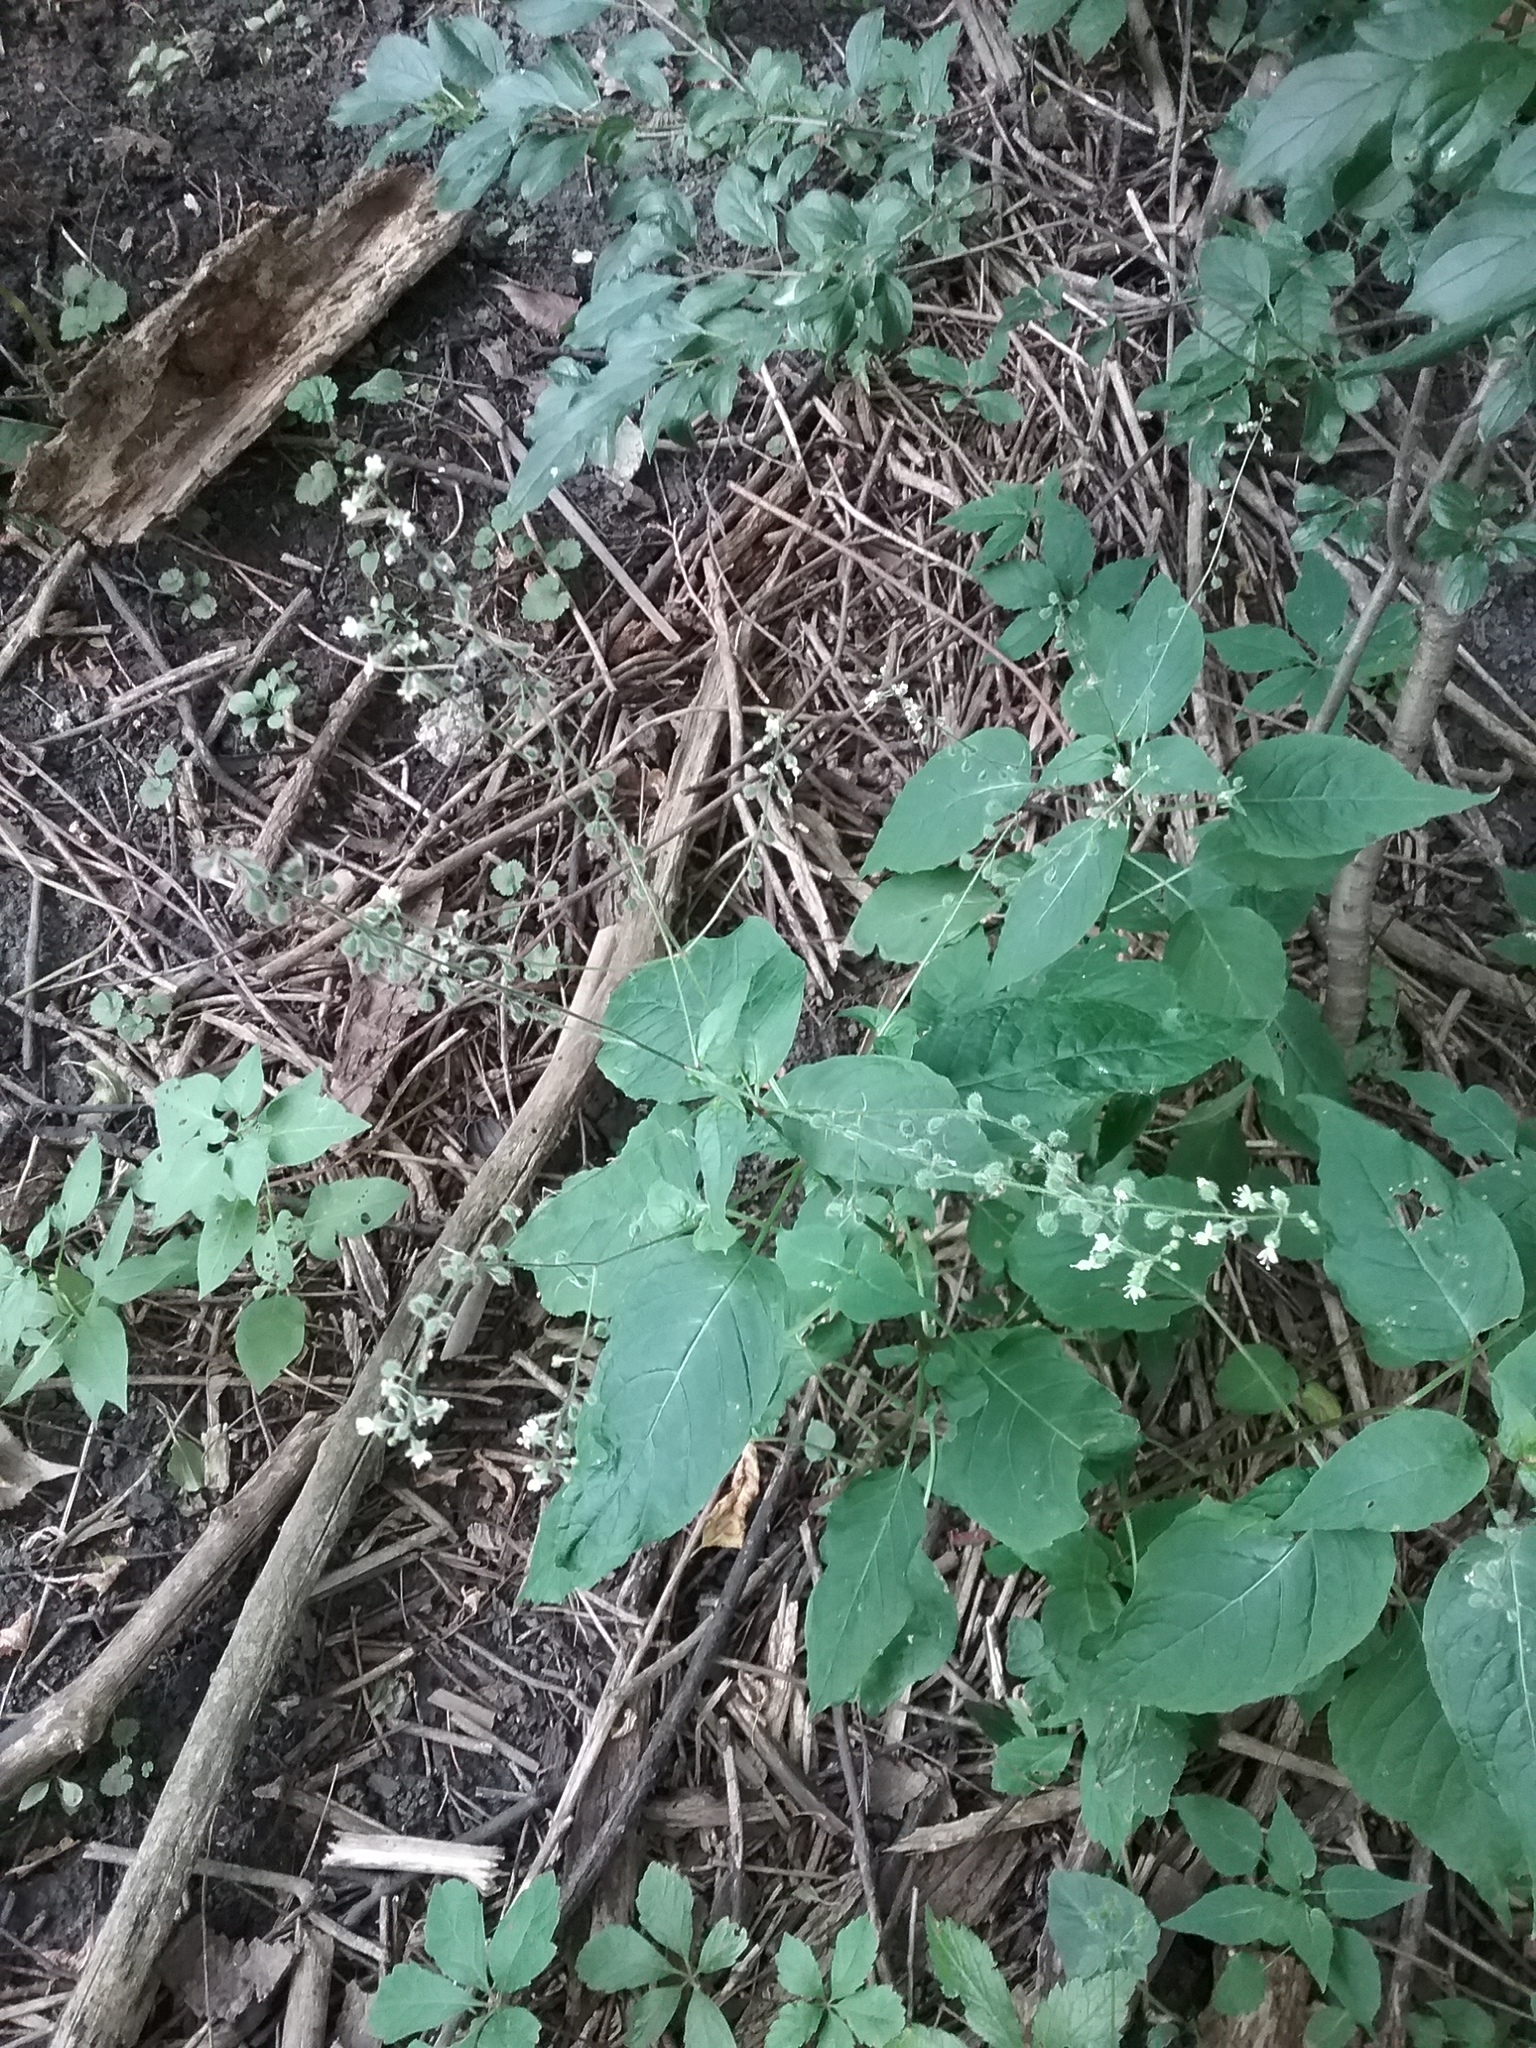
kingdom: Plantae
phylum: Tracheophyta
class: Magnoliopsida
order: Myrtales
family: Onagraceae
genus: Circaea
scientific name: Circaea canadensis
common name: Broad-leaved enchanter's nightshade
